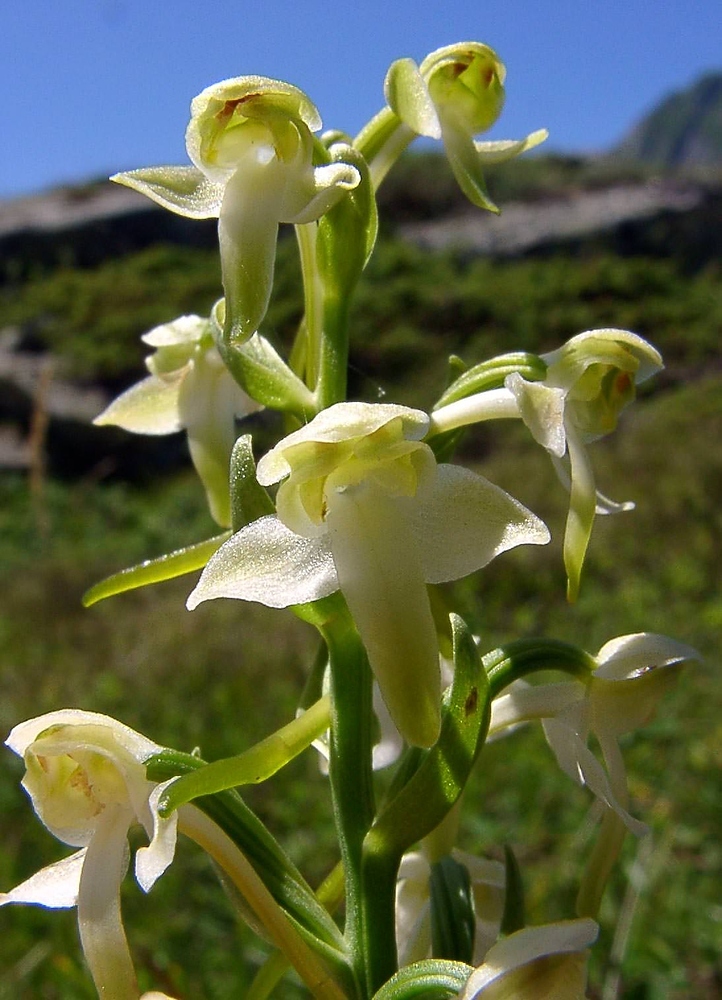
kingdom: Plantae
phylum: Tracheophyta
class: Liliopsida
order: Asparagales
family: Orchidaceae
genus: Platanthera
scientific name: Platanthera chlorantha
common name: Greater butterfly-orchid
